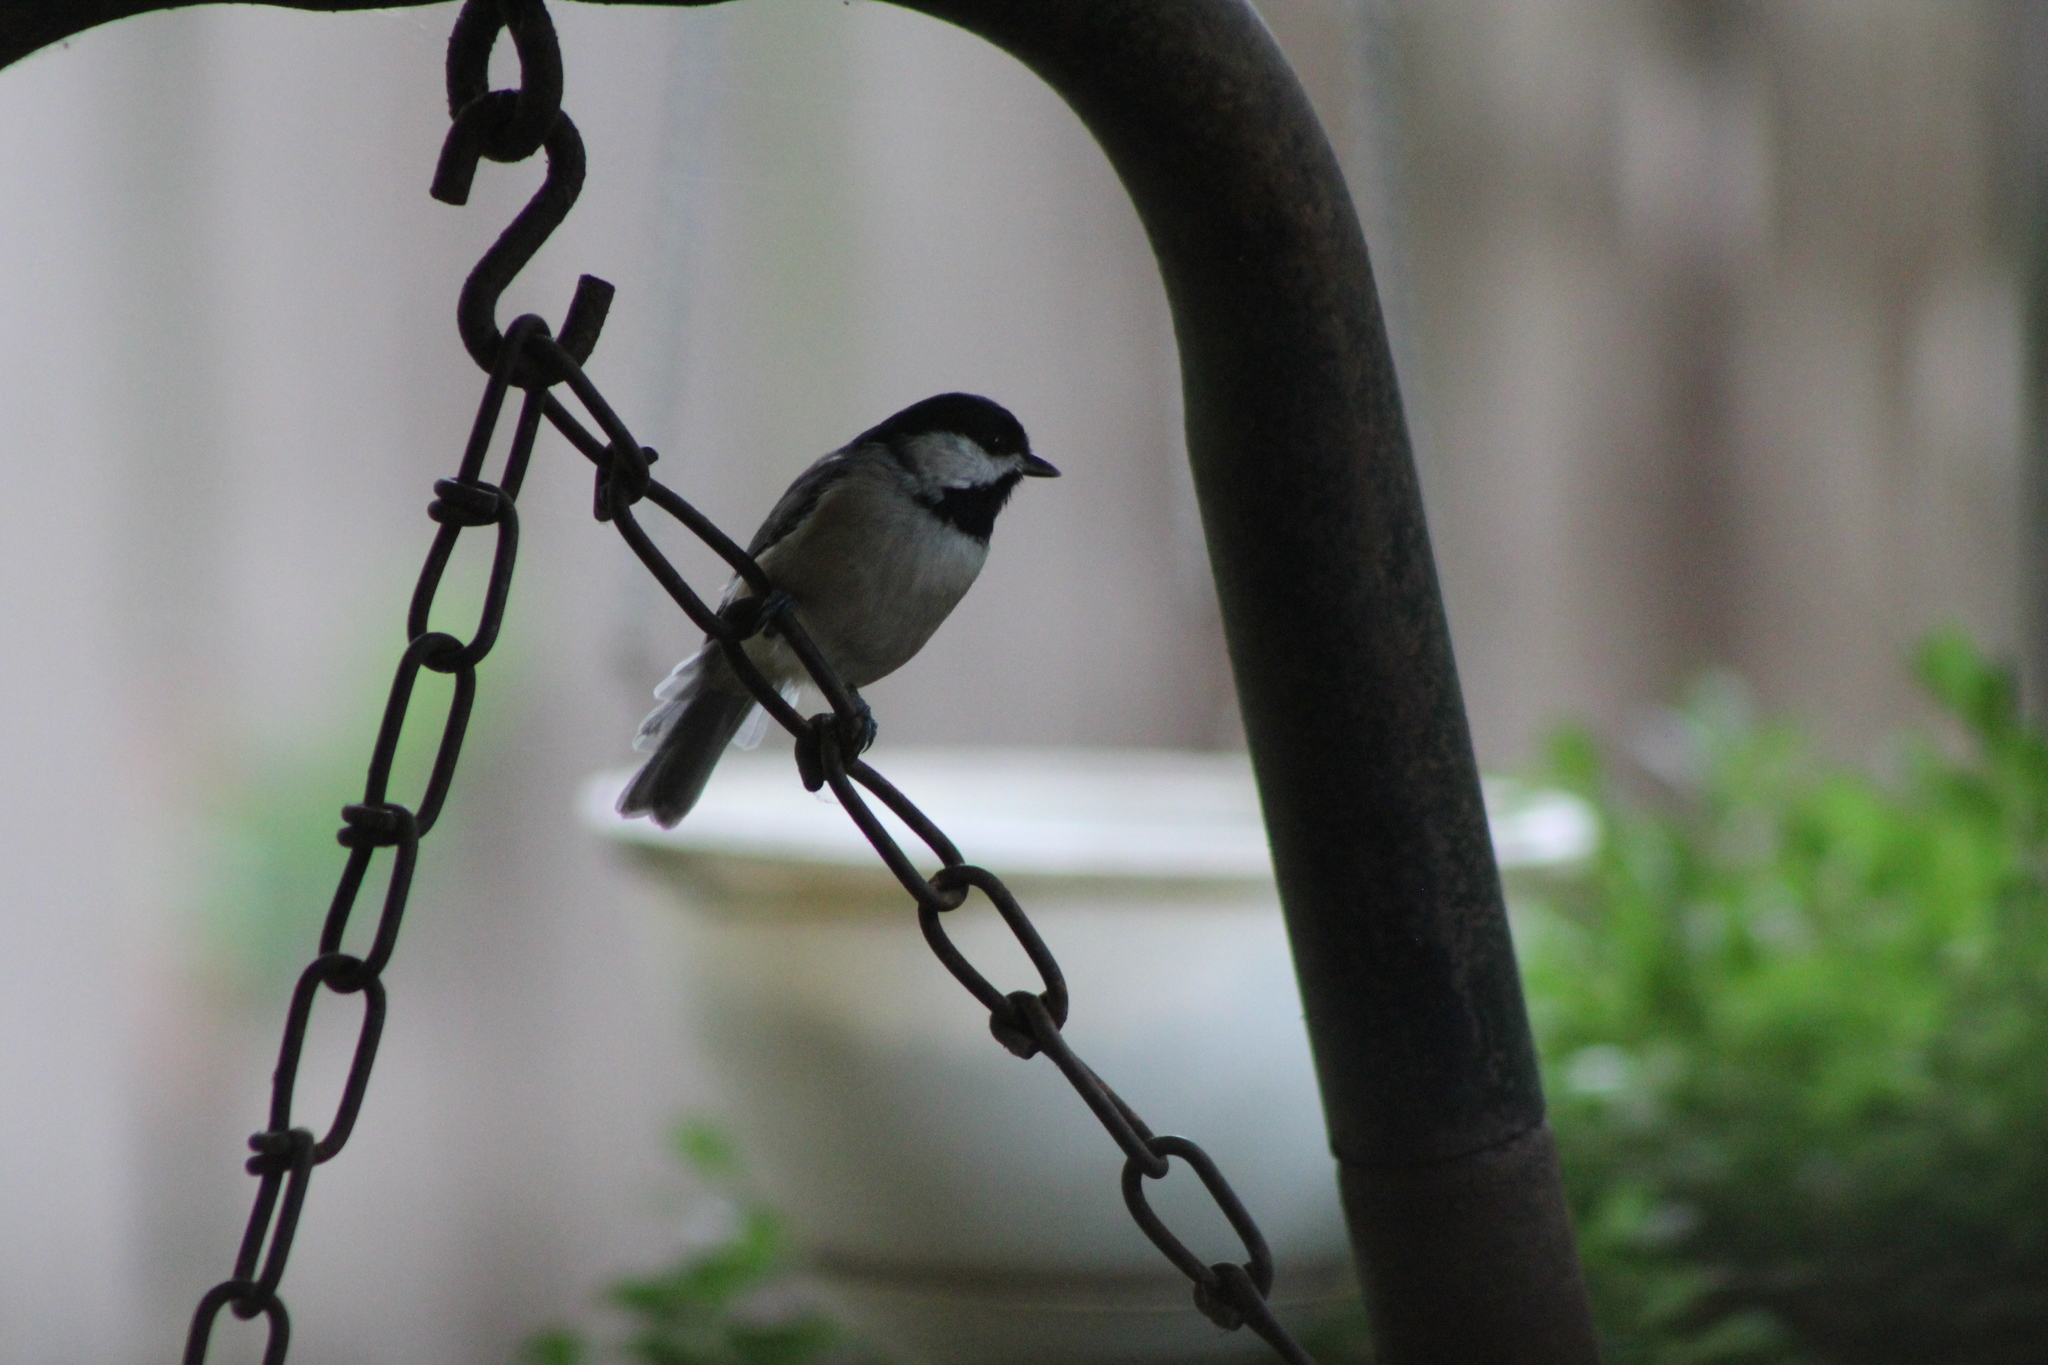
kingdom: Animalia
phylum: Chordata
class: Aves
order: Passeriformes
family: Paridae
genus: Poecile
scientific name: Poecile carolinensis
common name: Carolina chickadee
